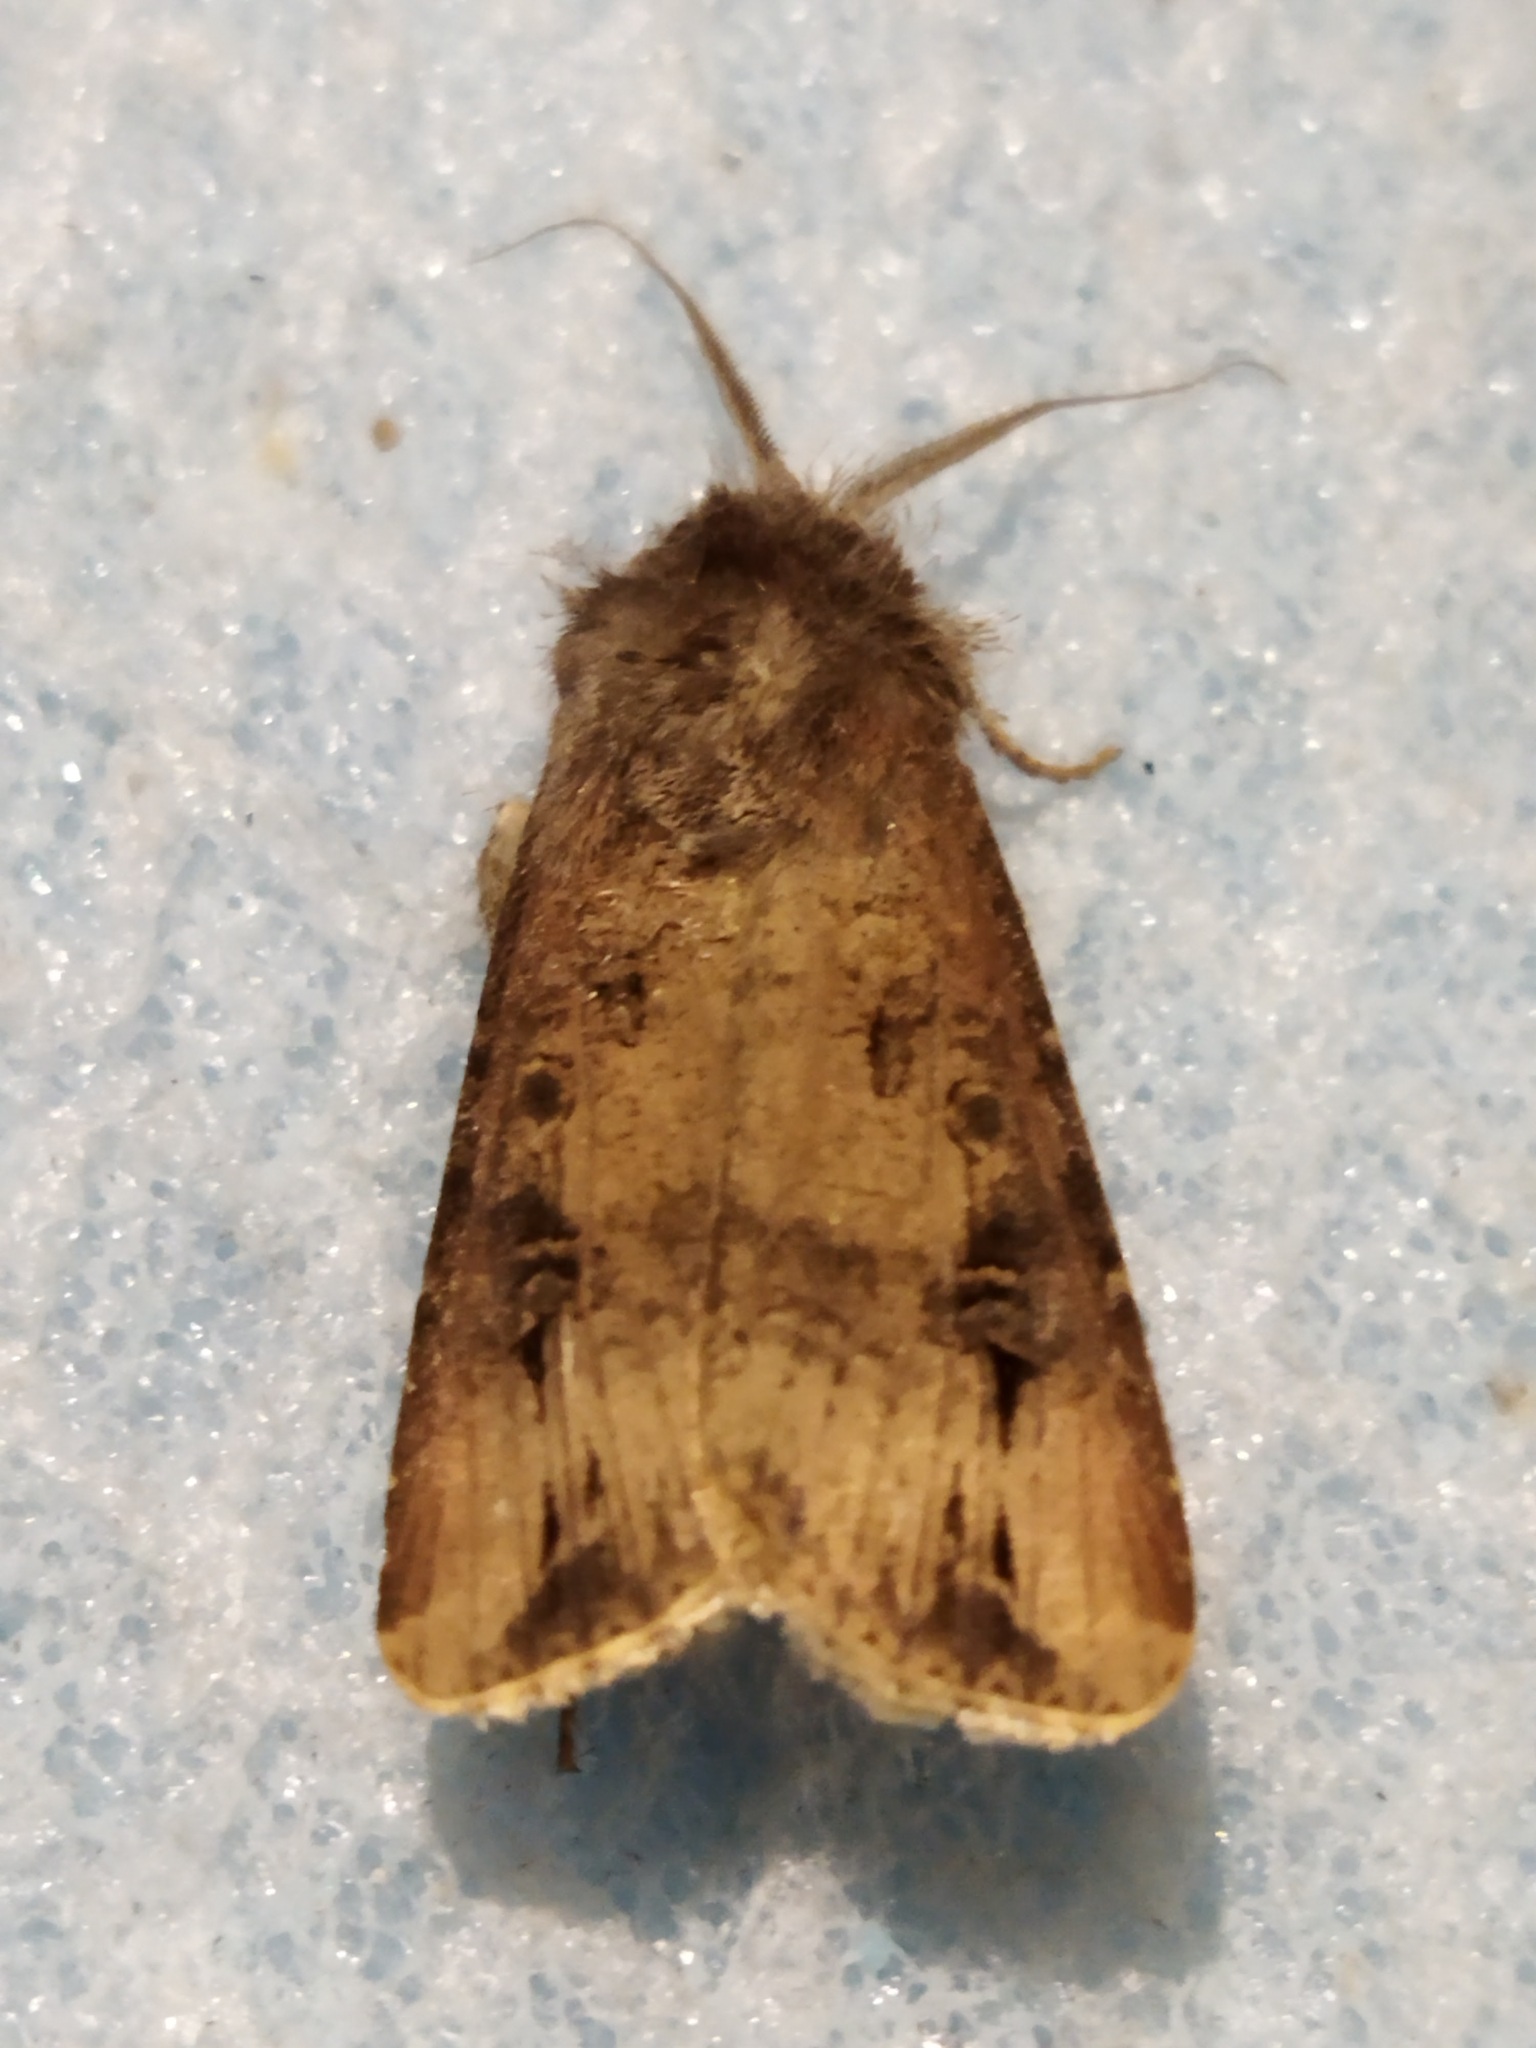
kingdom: Animalia
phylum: Arthropoda
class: Insecta
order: Lepidoptera
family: Noctuidae
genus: Agrotis
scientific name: Agrotis ipsilon
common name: Dark sword-grass
